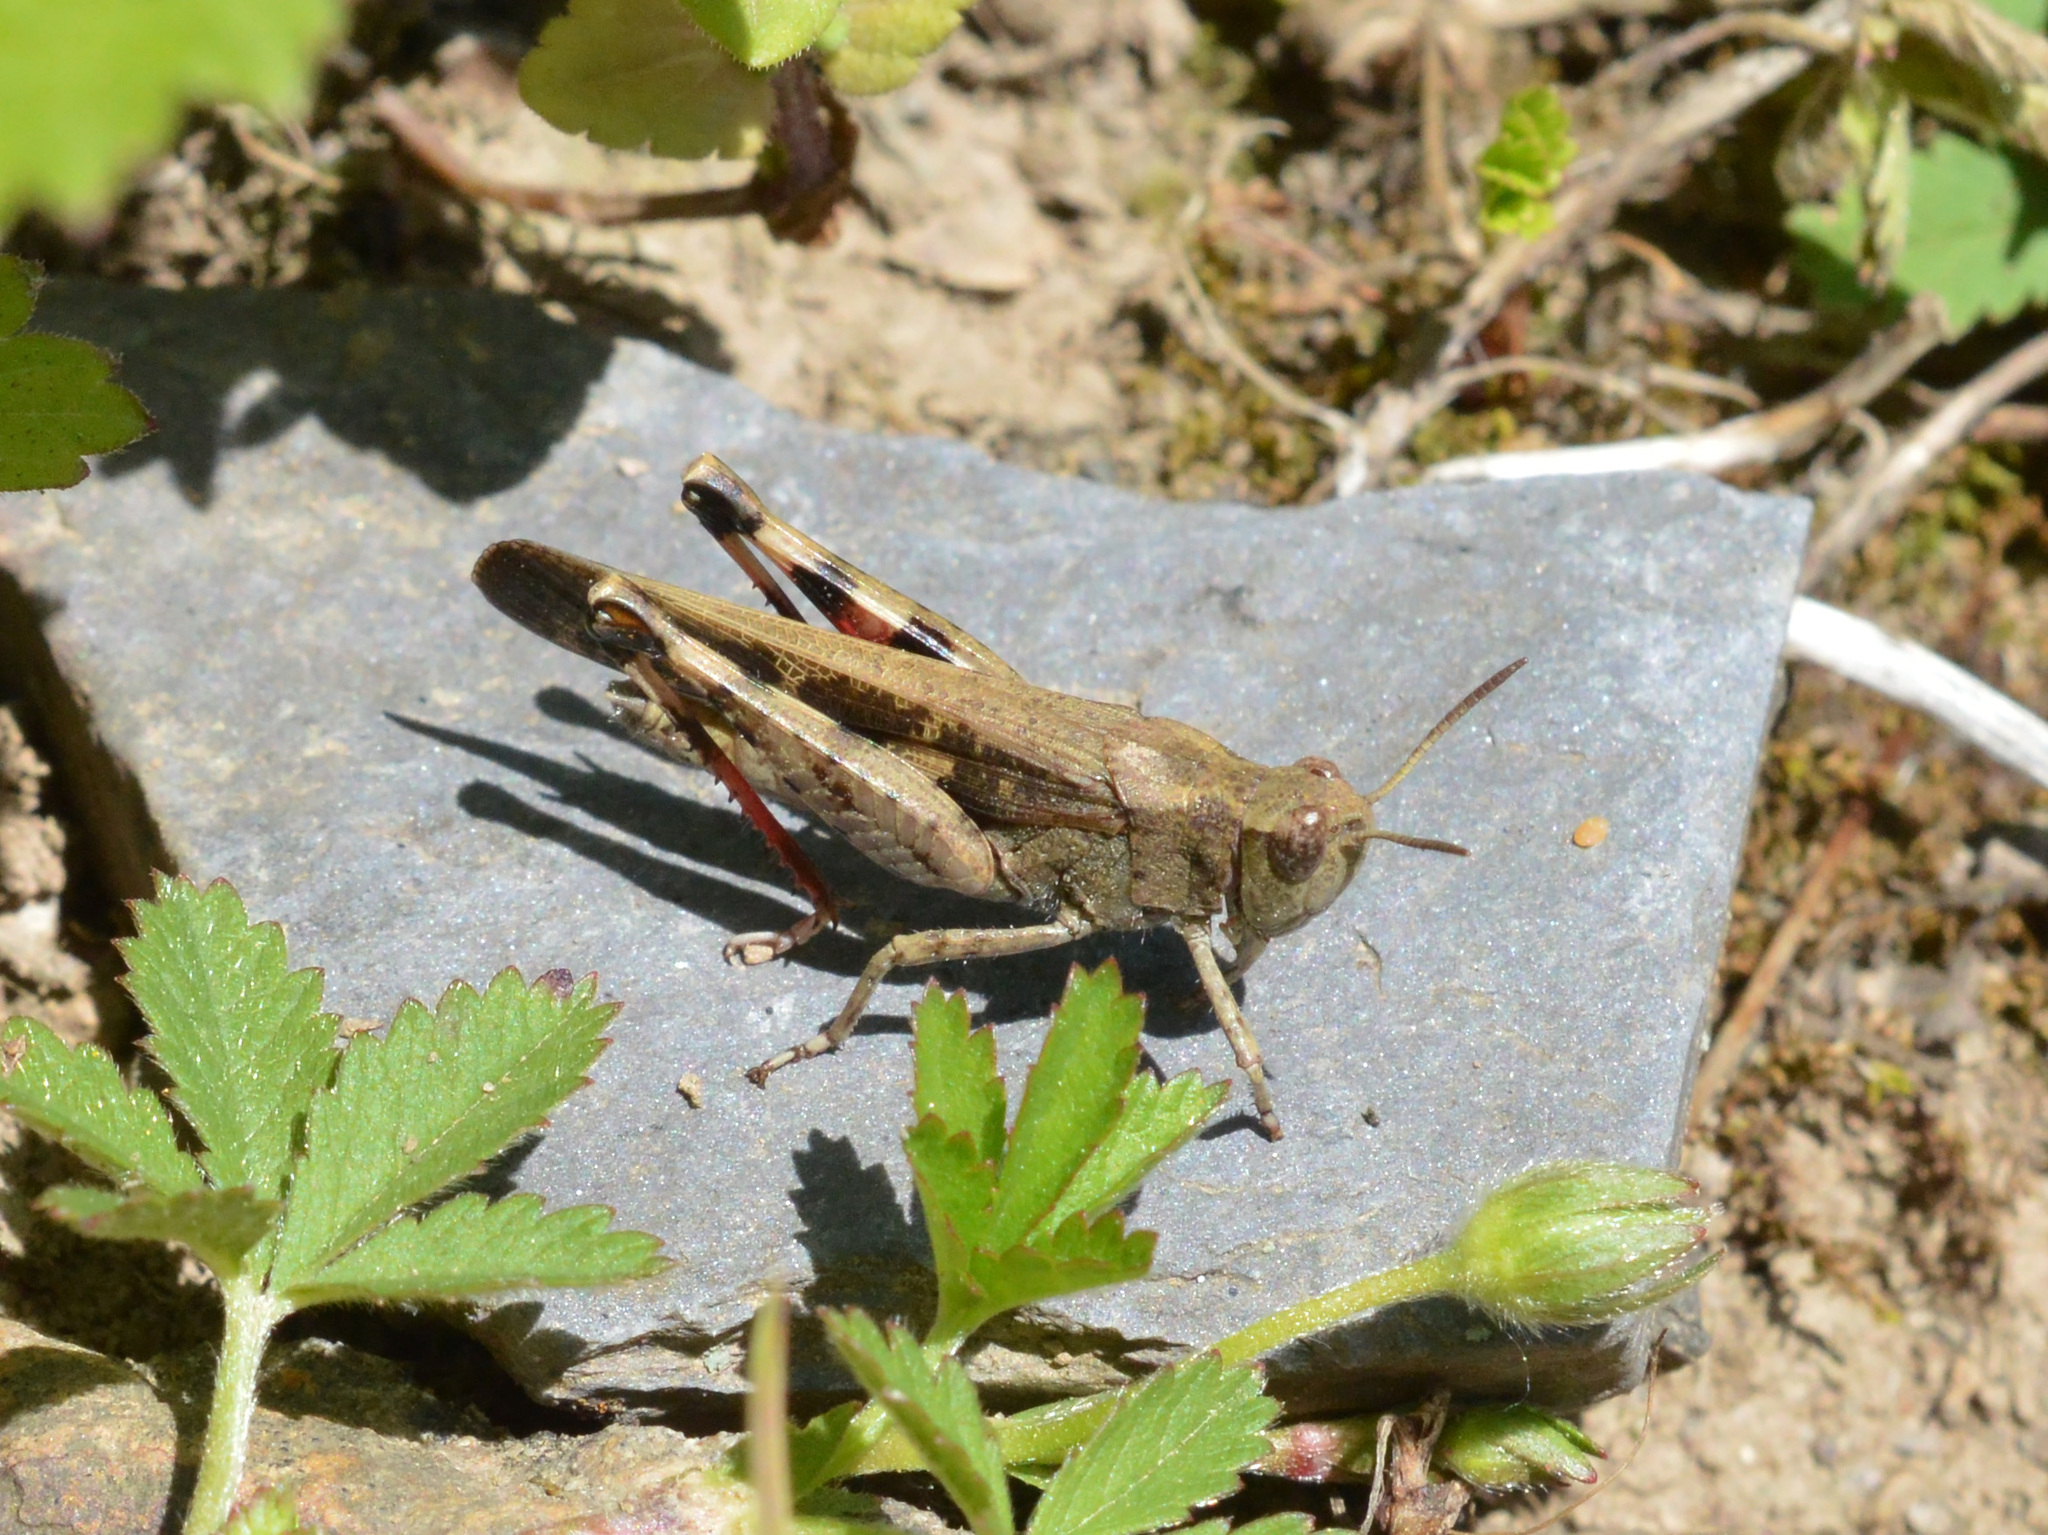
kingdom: Animalia
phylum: Arthropoda
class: Insecta
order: Orthoptera
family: Acrididae
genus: Aiolopus
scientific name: Aiolopus strepens
